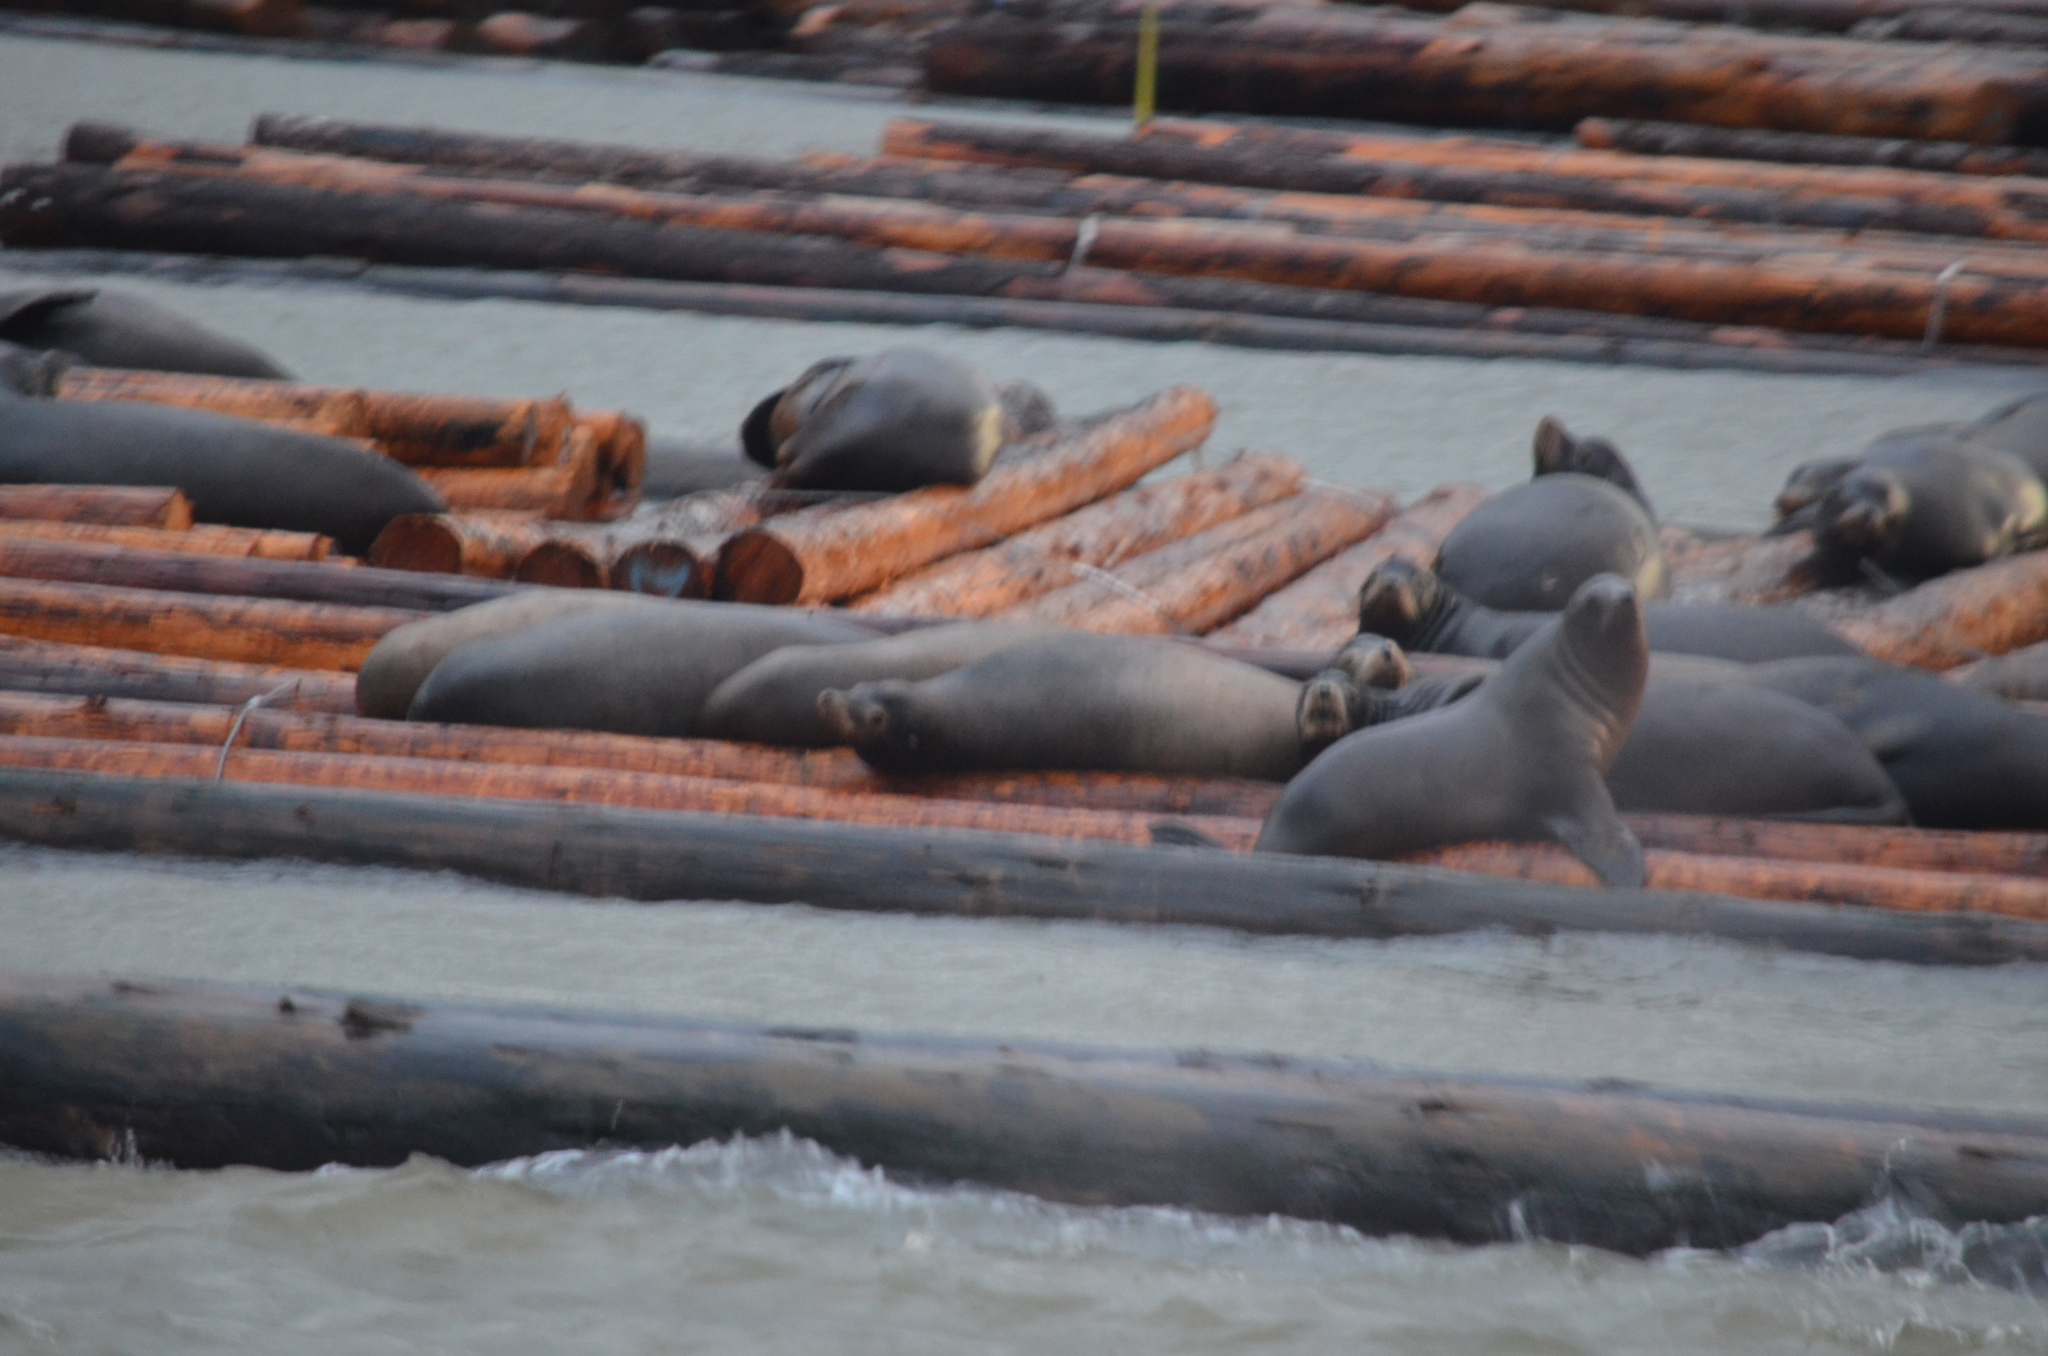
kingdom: Animalia
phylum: Chordata
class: Mammalia
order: Carnivora
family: Otariidae
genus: Zalophus
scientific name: Zalophus californianus
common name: California sea lion
